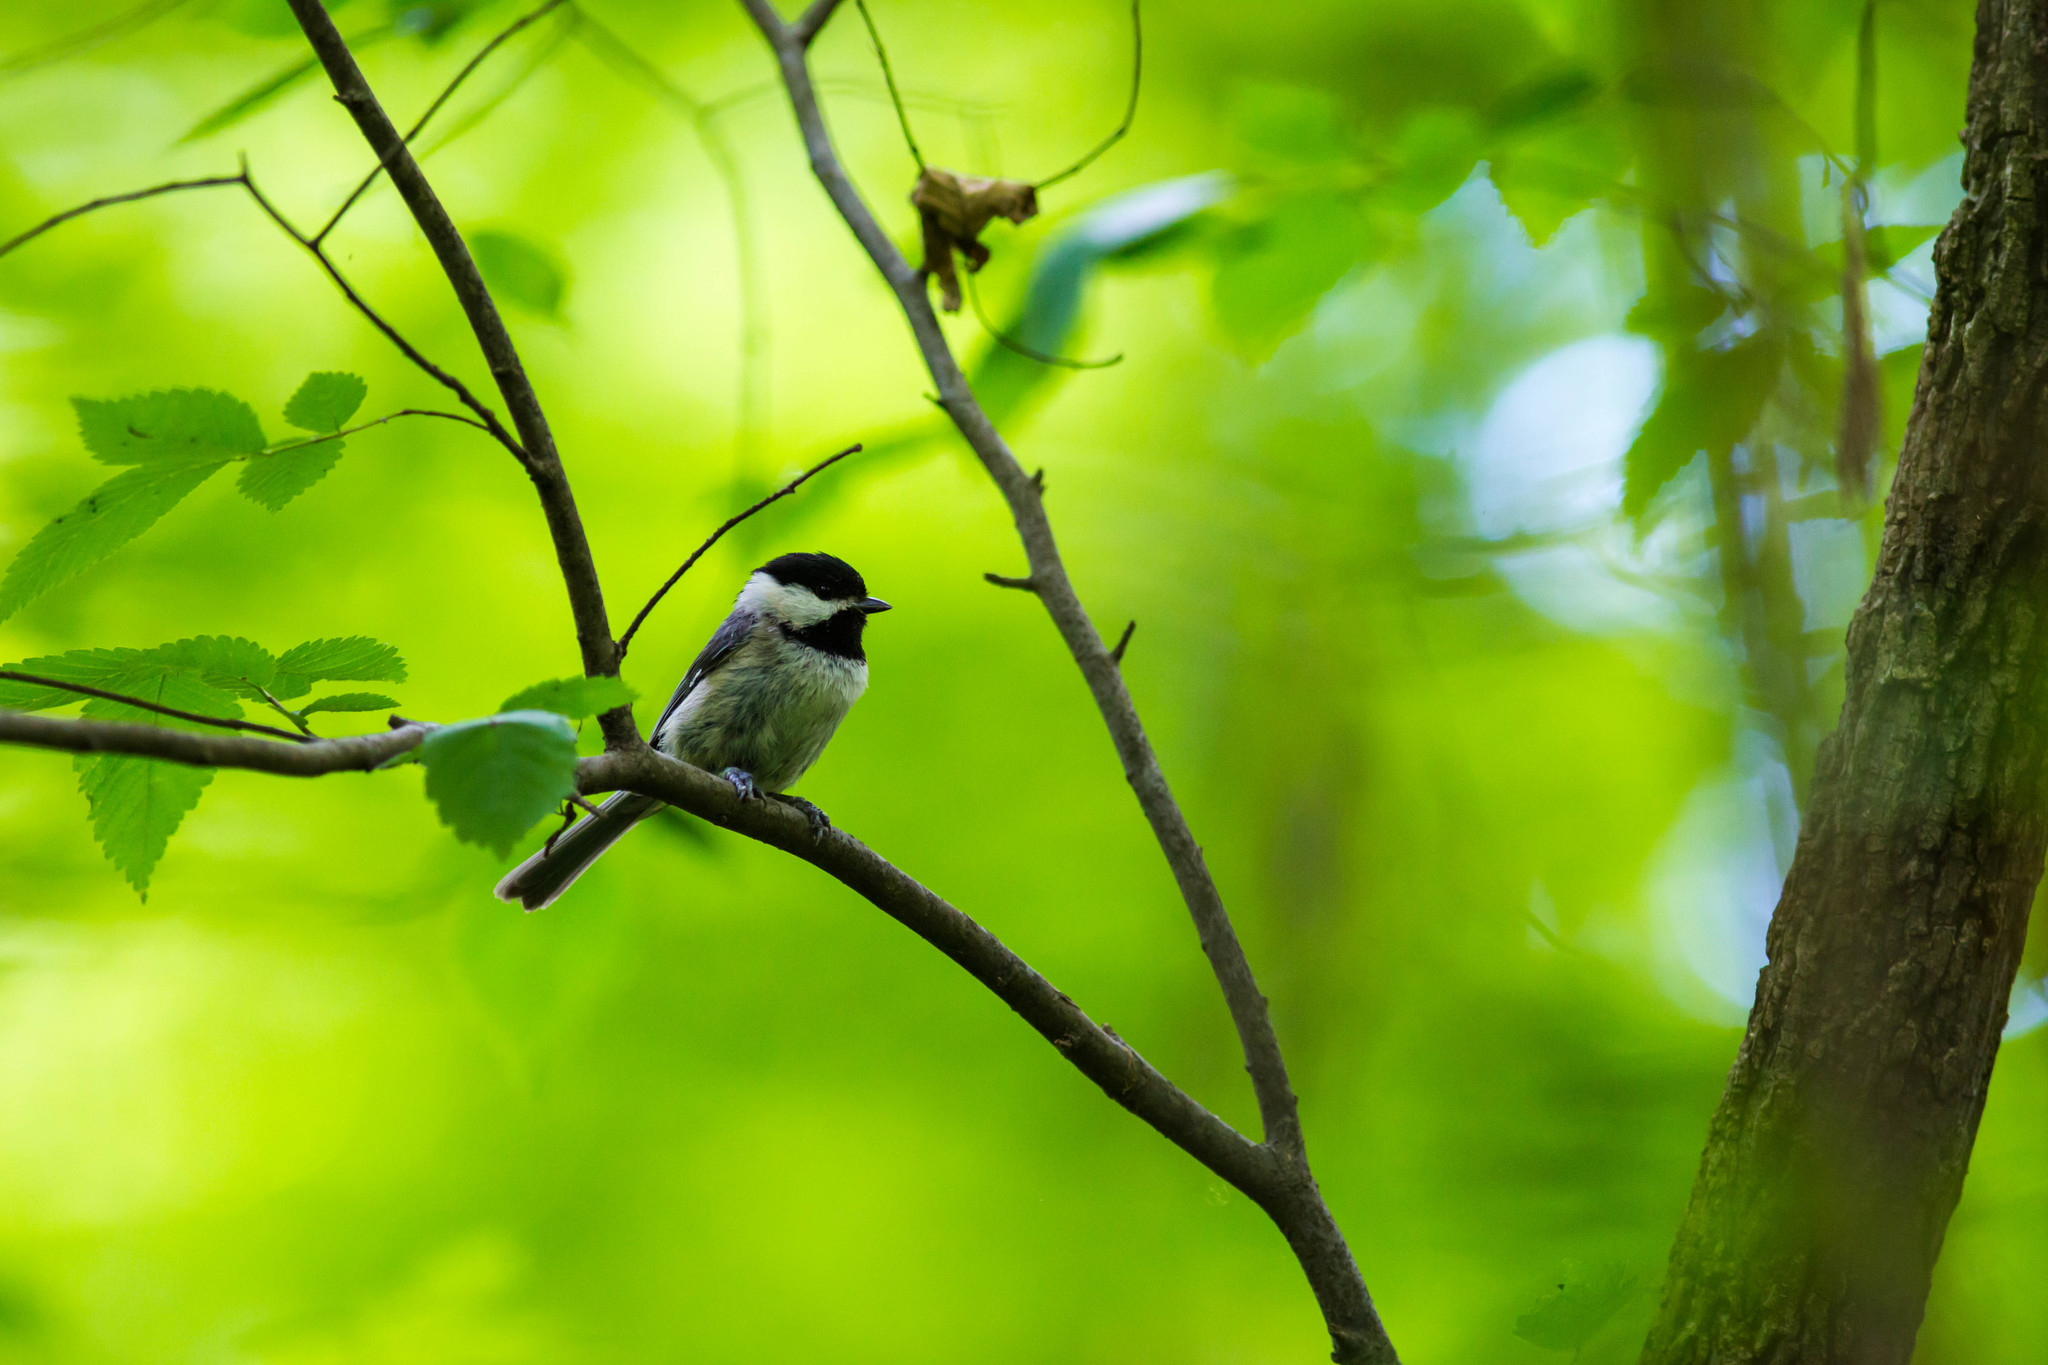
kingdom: Animalia
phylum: Chordata
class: Aves
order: Passeriformes
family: Paridae
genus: Poecile
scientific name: Poecile carolinensis
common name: Carolina chickadee
